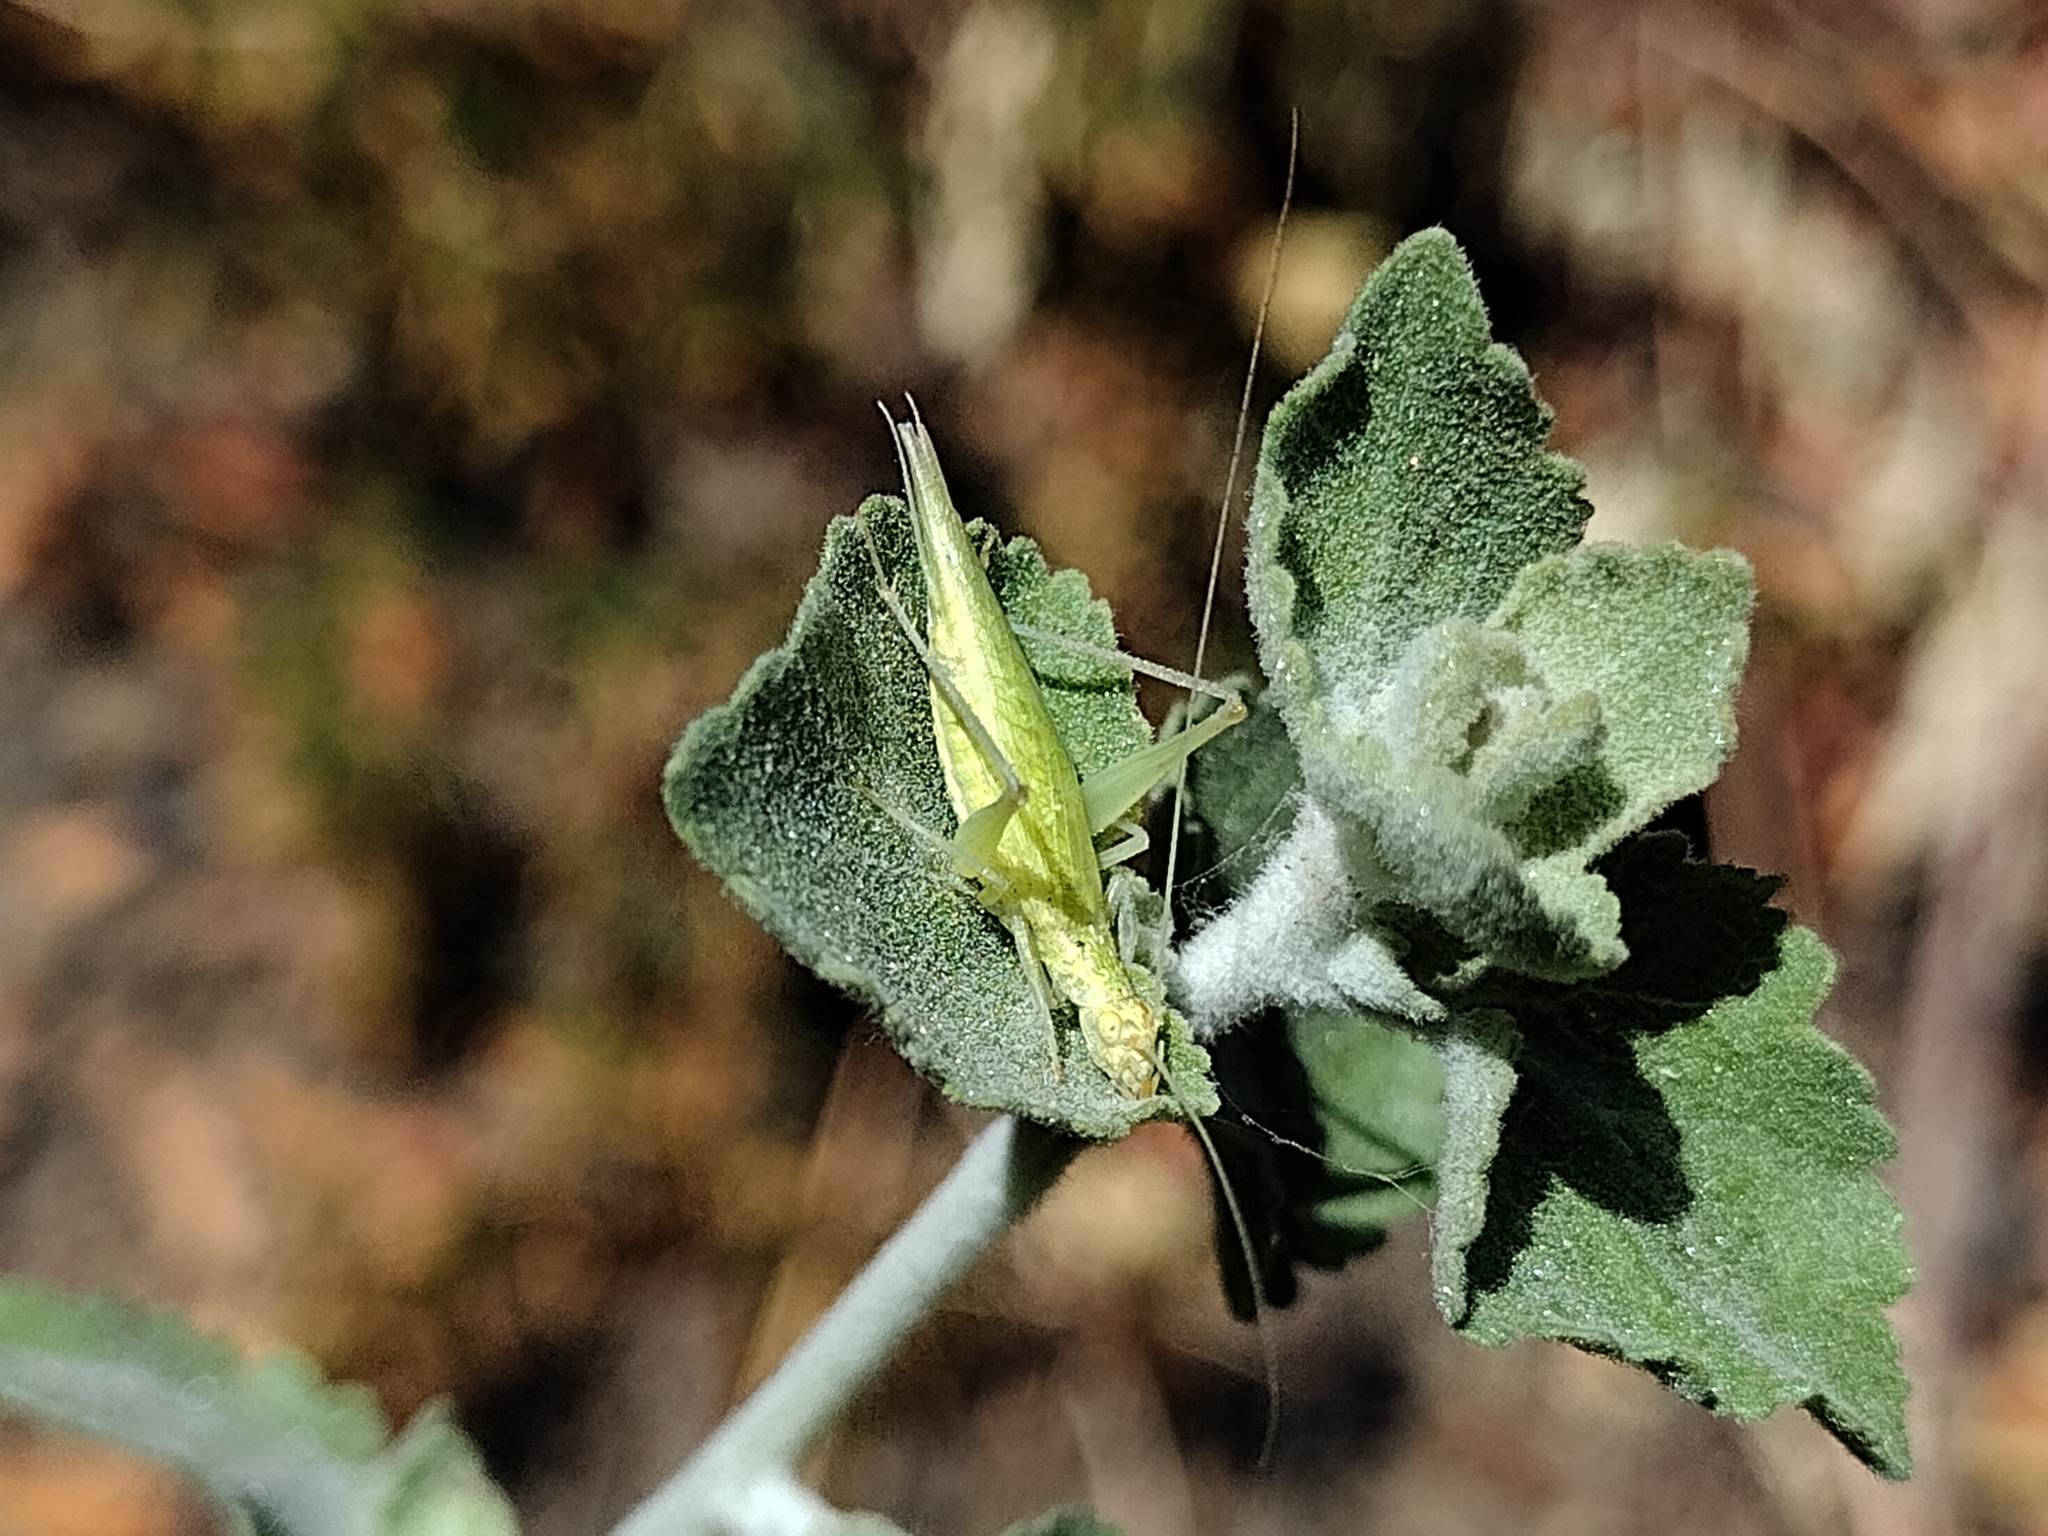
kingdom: Animalia
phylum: Arthropoda
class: Insecta
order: Orthoptera
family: Gryllidae
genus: Oecanthus
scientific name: Oecanthus
